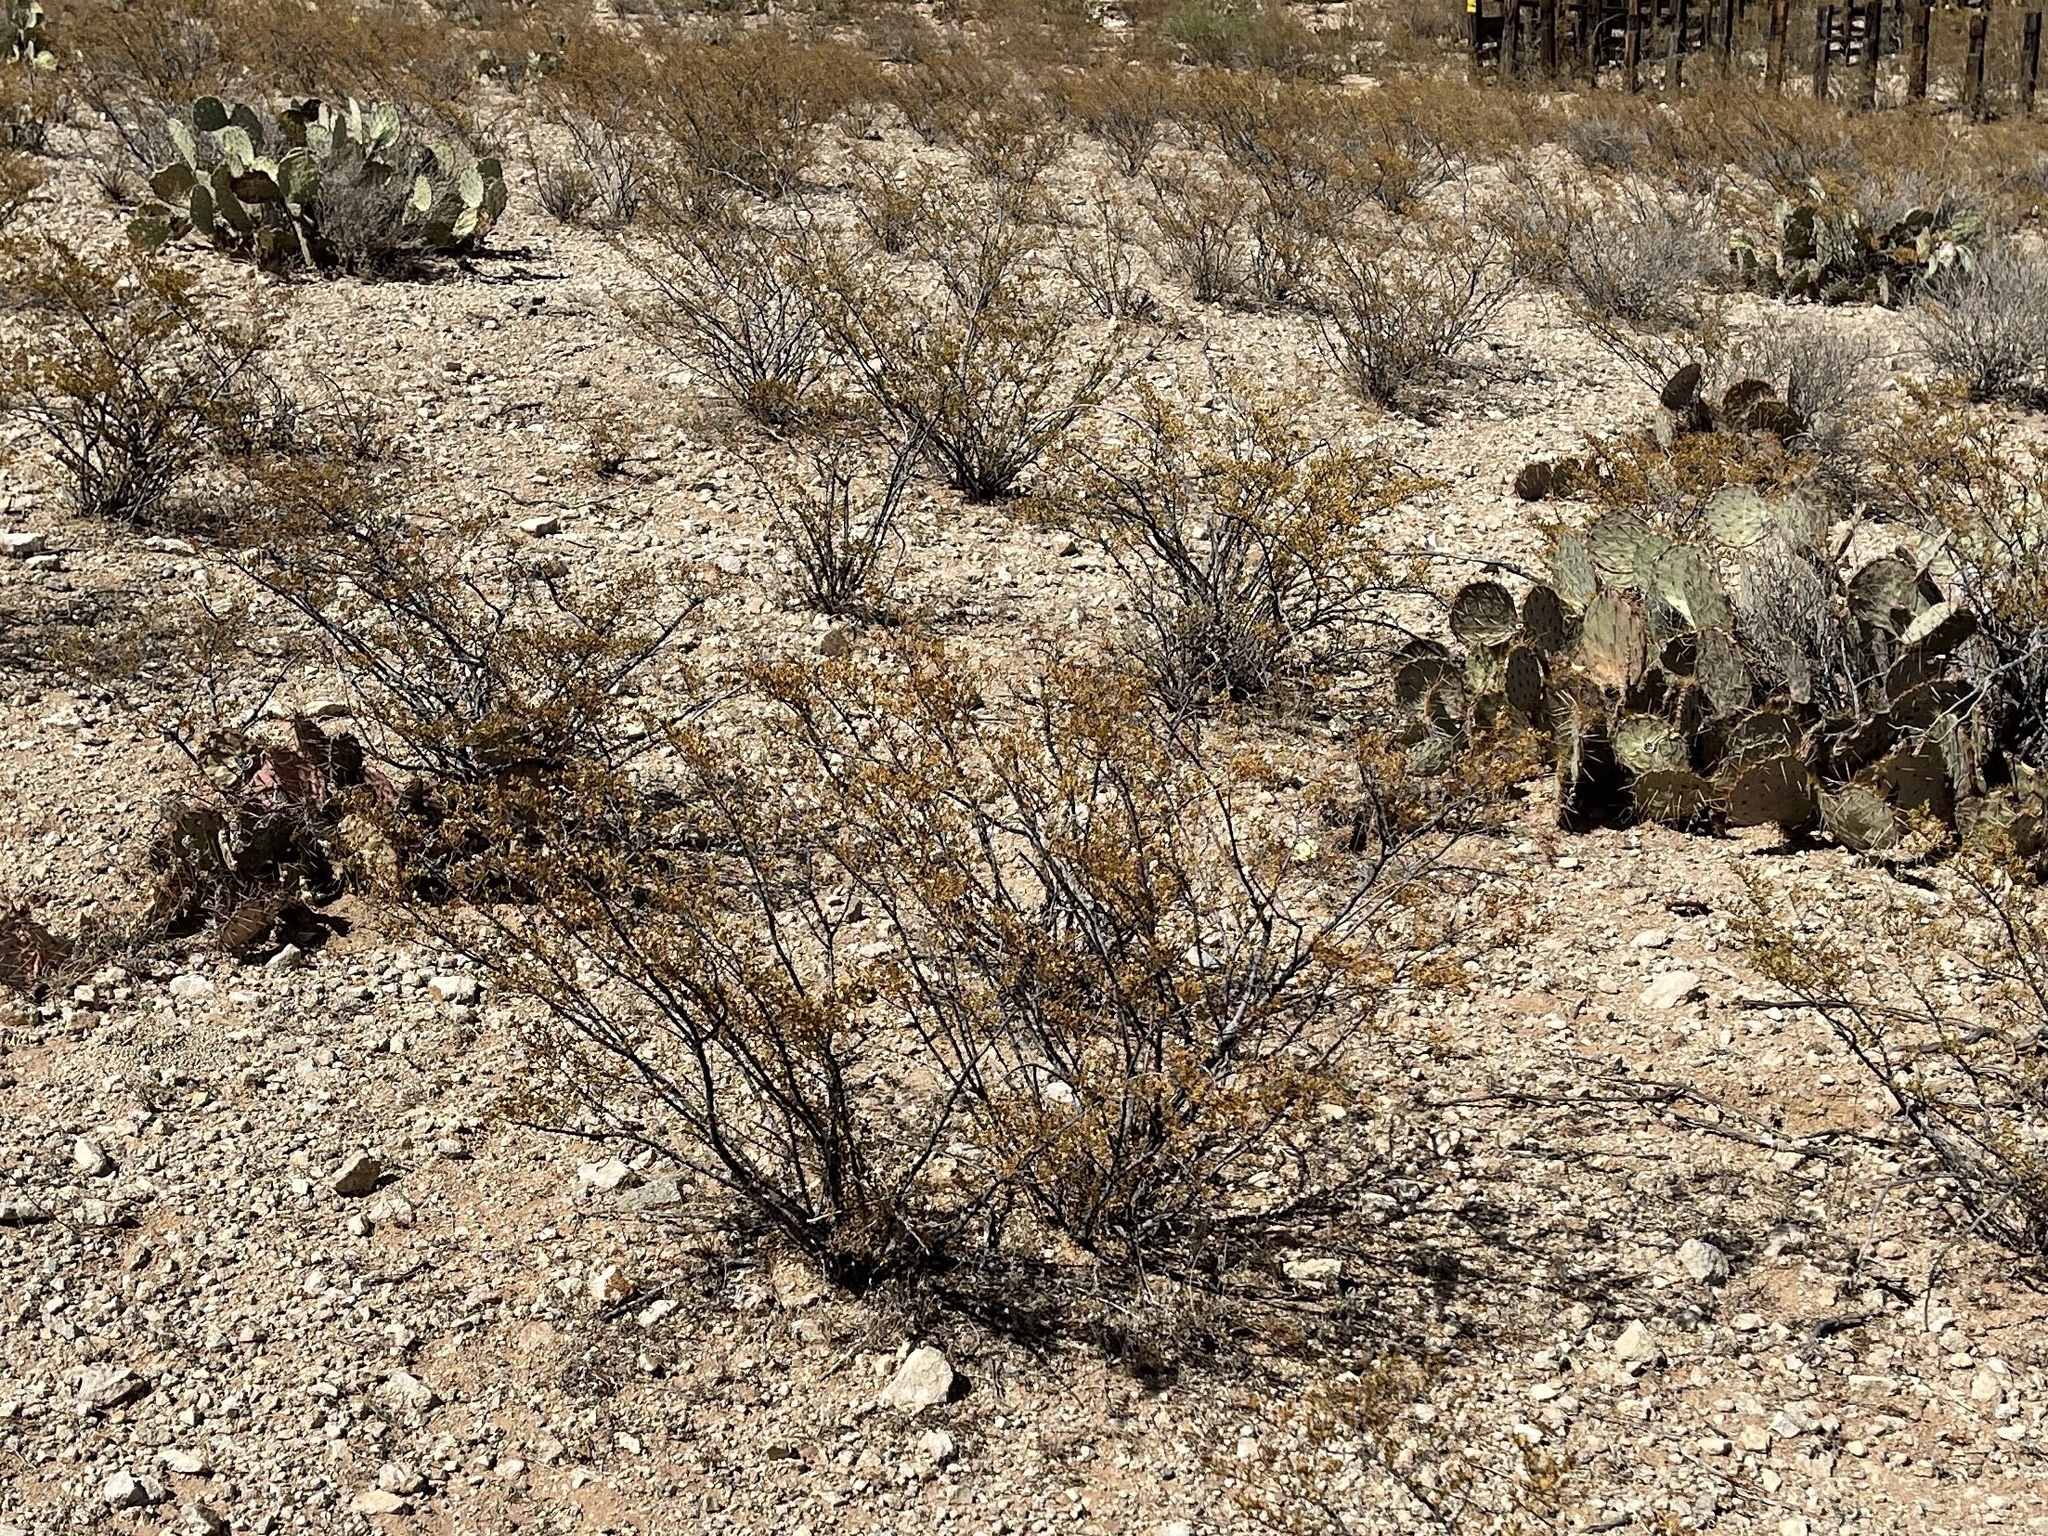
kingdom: Plantae
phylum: Tracheophyta
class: Magnoliopsida
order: Zygophyllales
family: Zygophyllaceae
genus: Larrea
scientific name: Larrea tridentata
